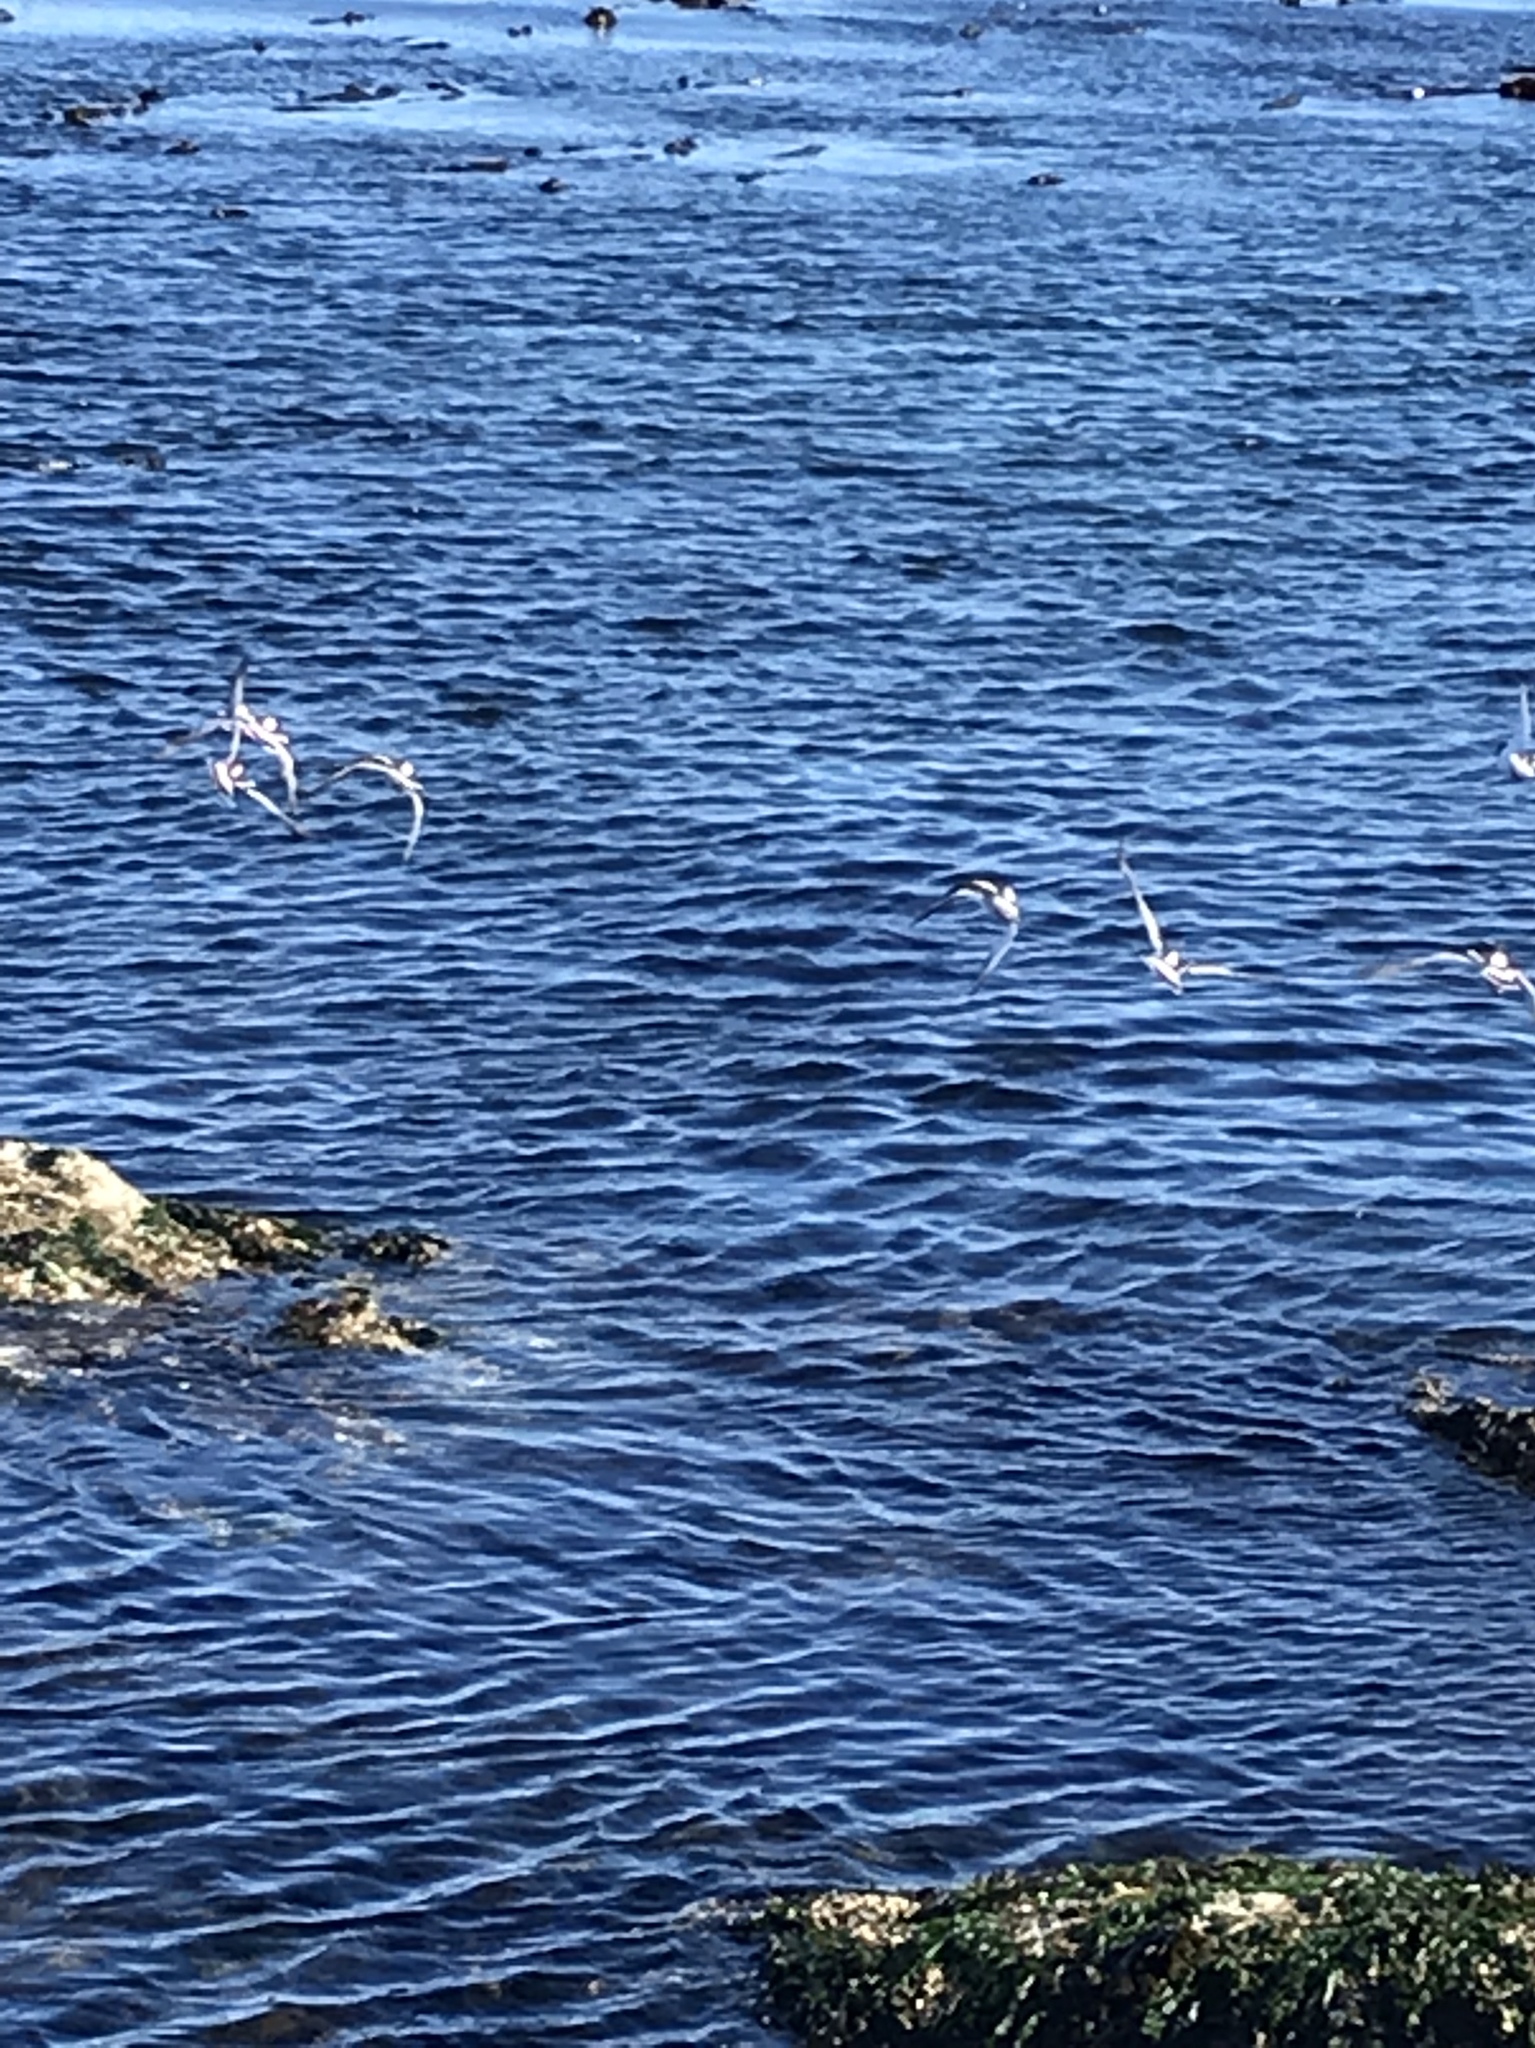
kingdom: Animalia
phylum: Chordata
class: Aves
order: Charadriiformes
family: Scolopacidae
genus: Arenaria
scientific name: Arenaria melanocephala
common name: Black turnstone
